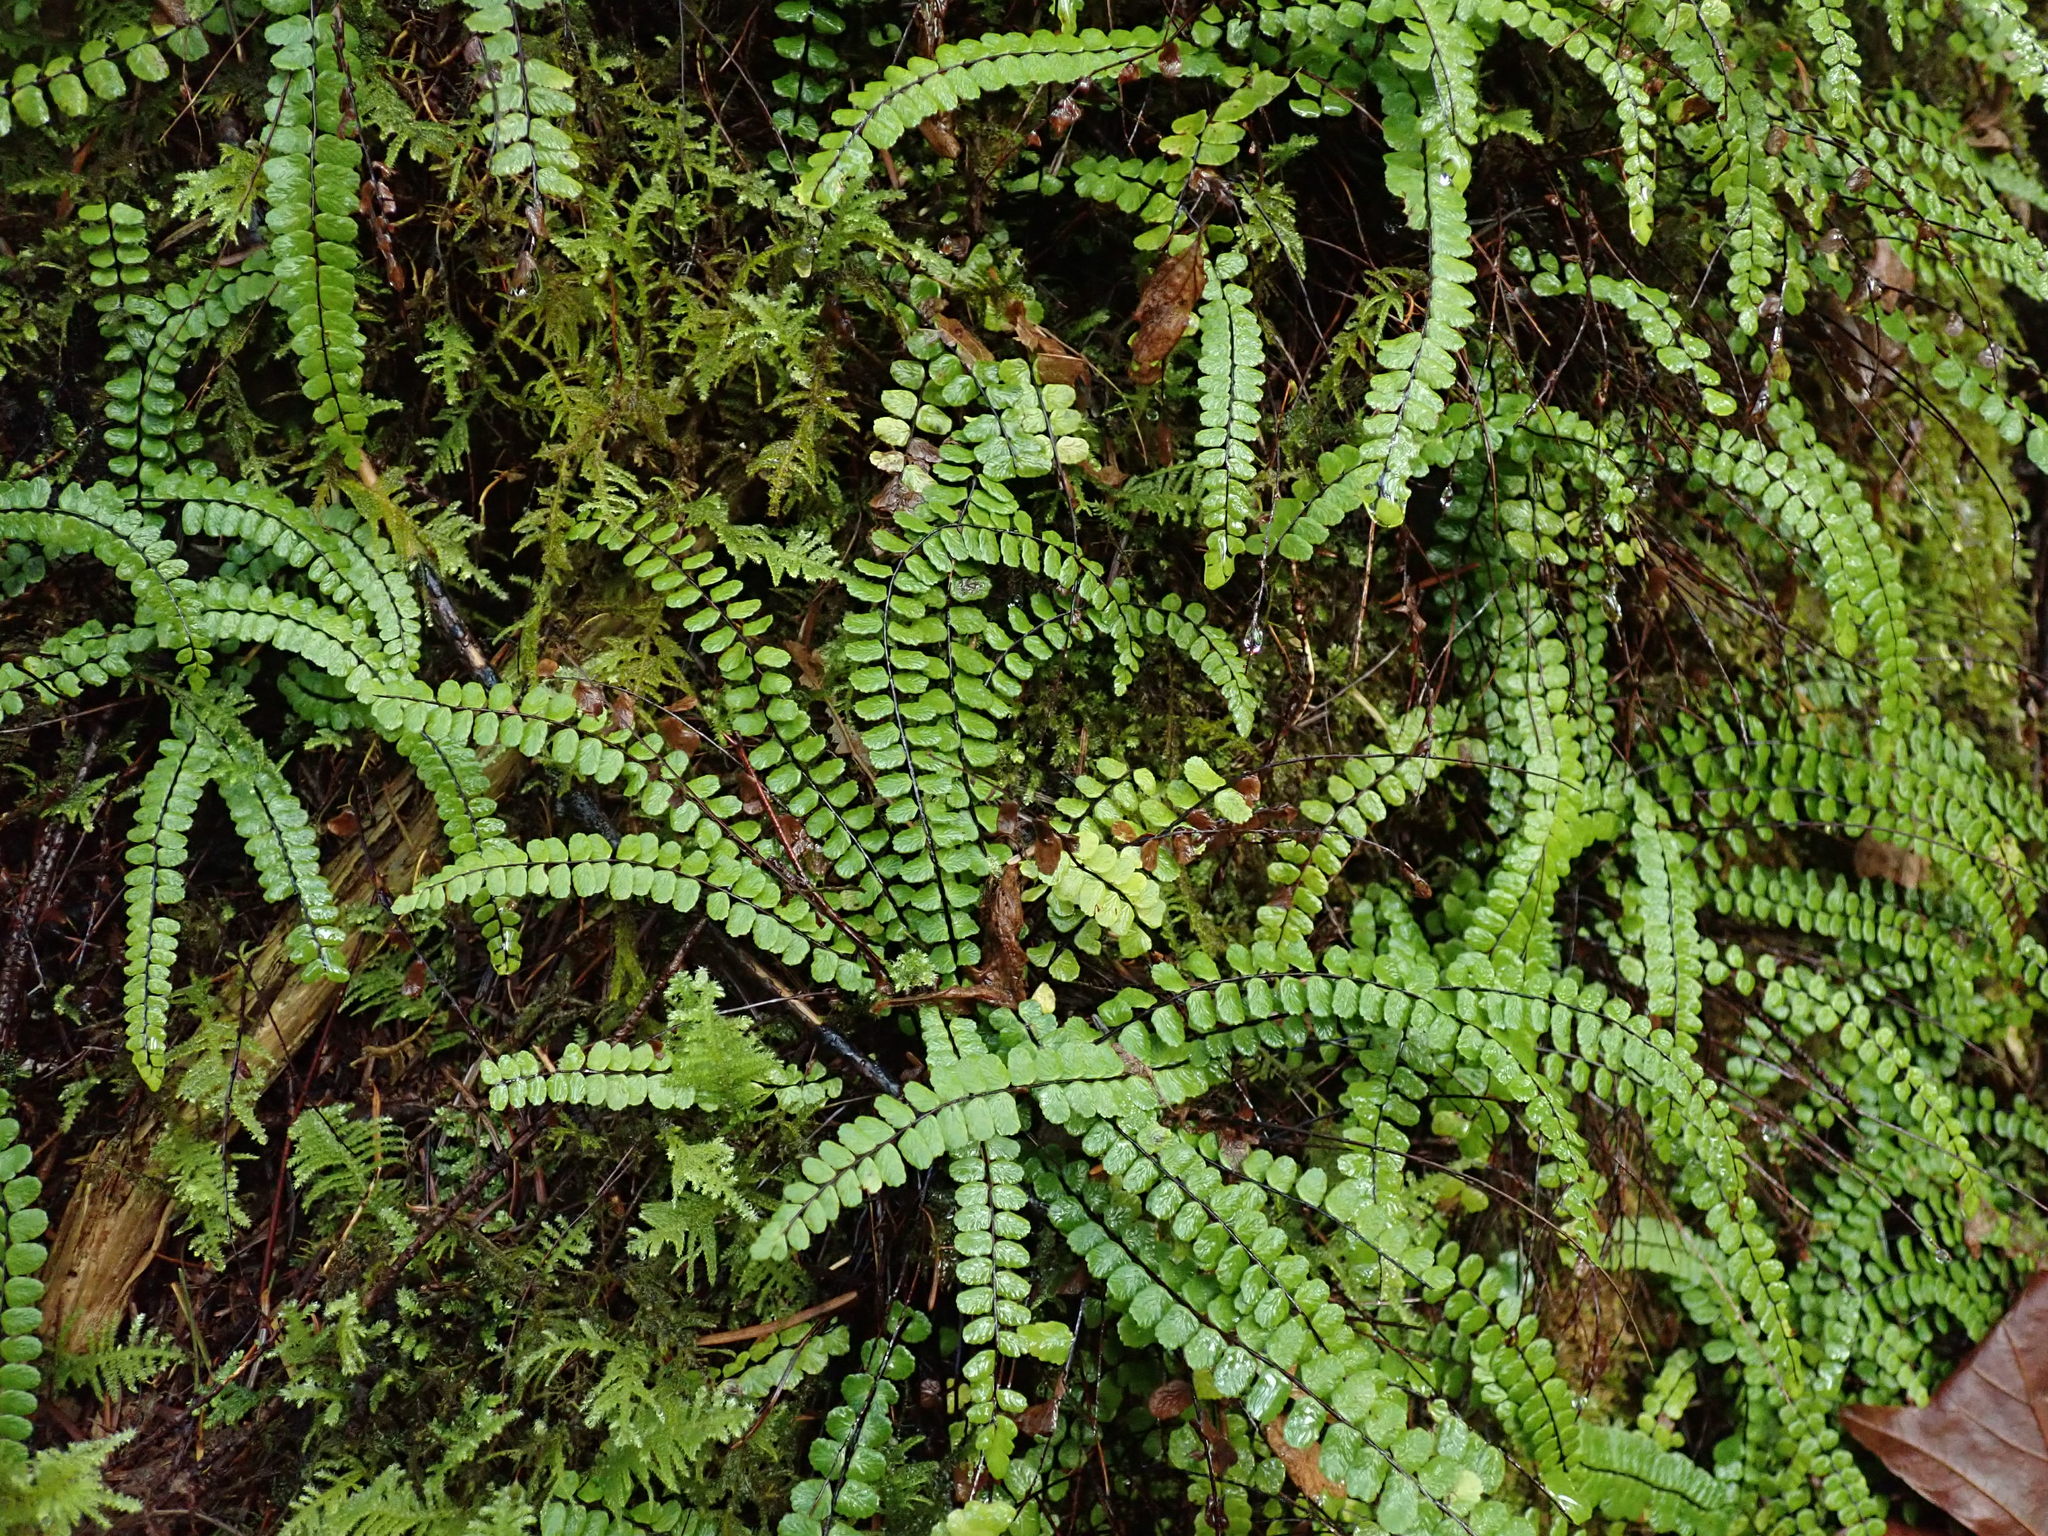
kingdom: Plantae
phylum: Tracheophyta
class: Polypodiopsida
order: Polypodiales
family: Aspleniaceae
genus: Asplenium
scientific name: Asplenium trichomanes
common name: Maidenhair spleenwort
